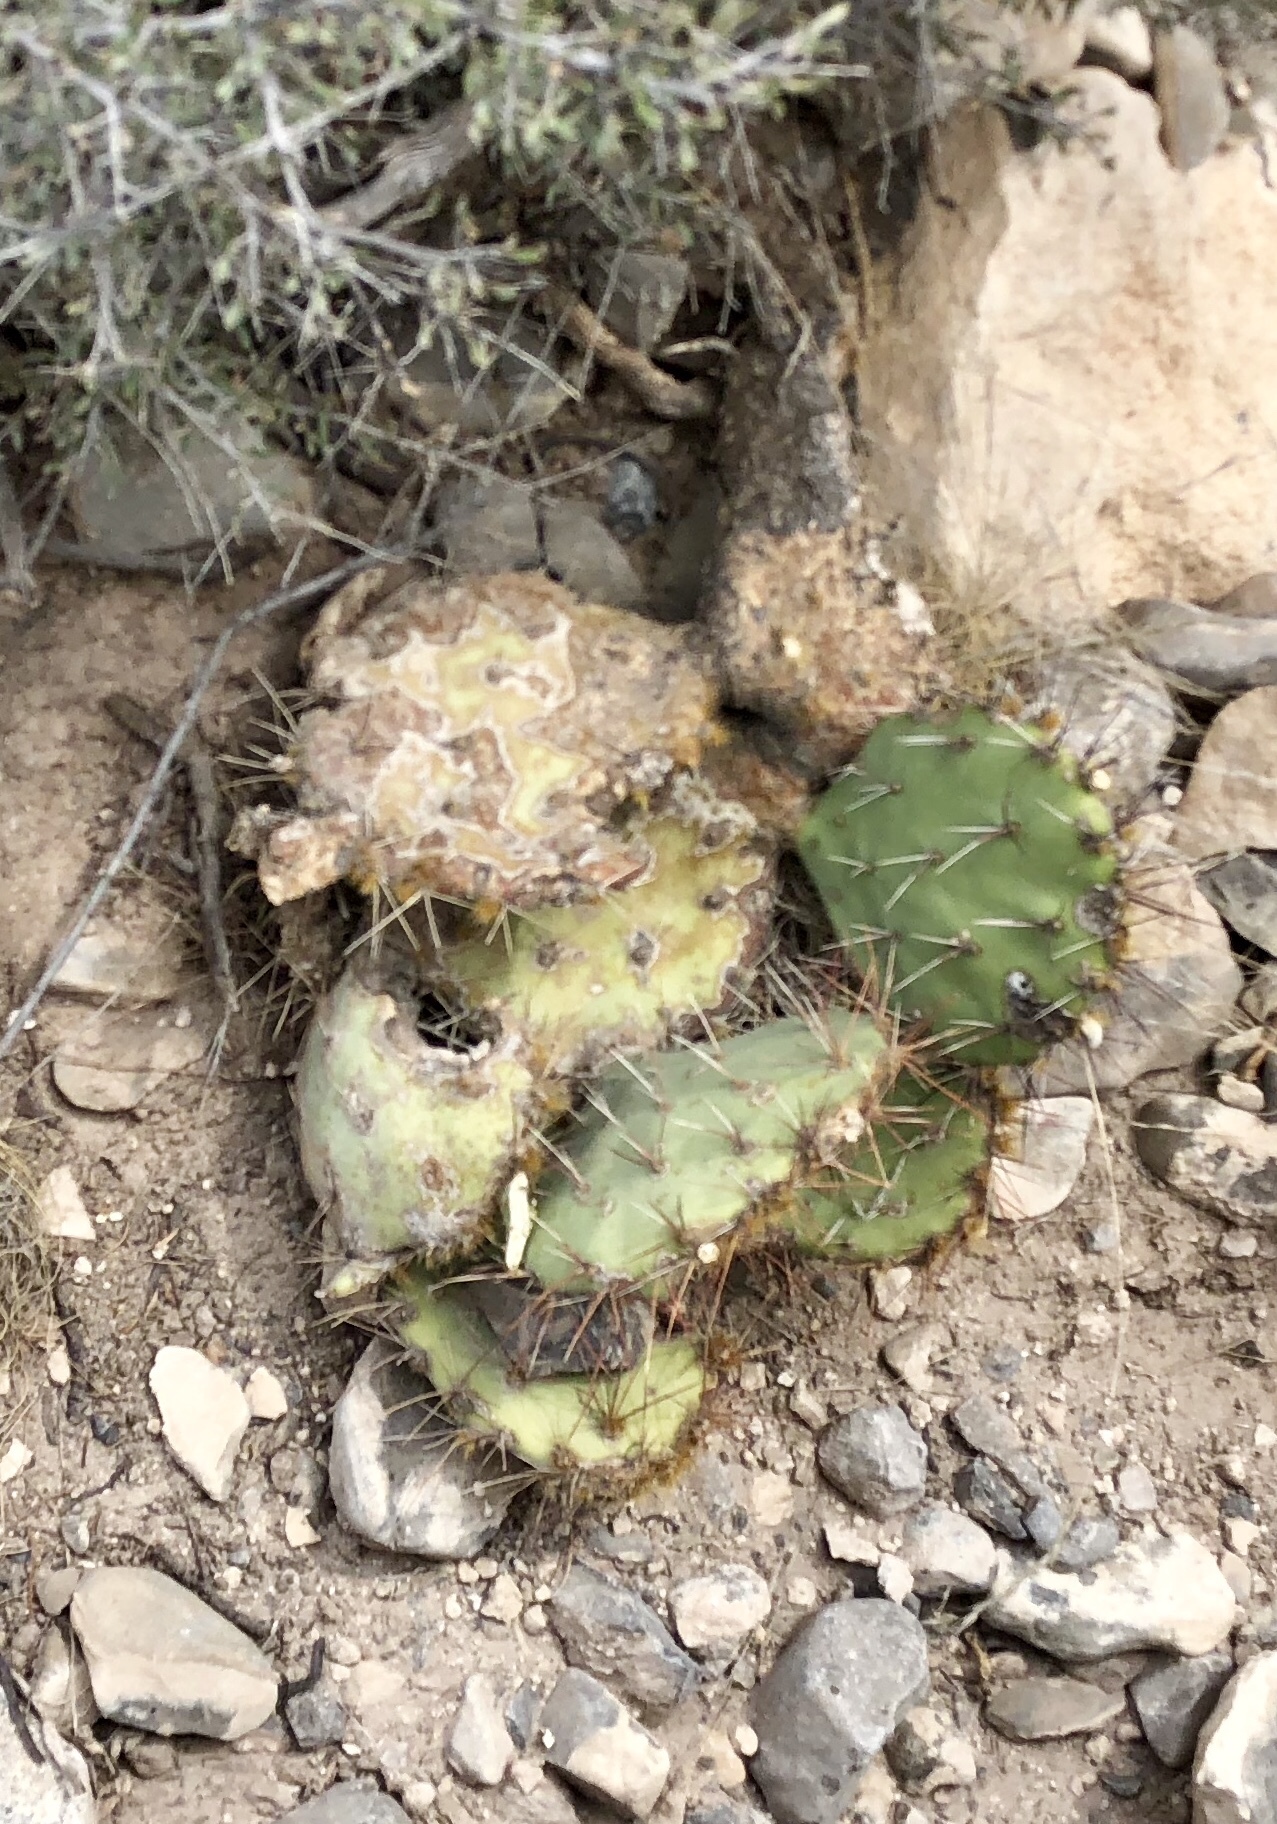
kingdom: Plantae
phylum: Tracheophyta
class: Magnoliopsida
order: Caryophyllales
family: Cactaceae
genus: Opuntia
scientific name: Opuntia phaeacantha
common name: New mexico prickly-pear
